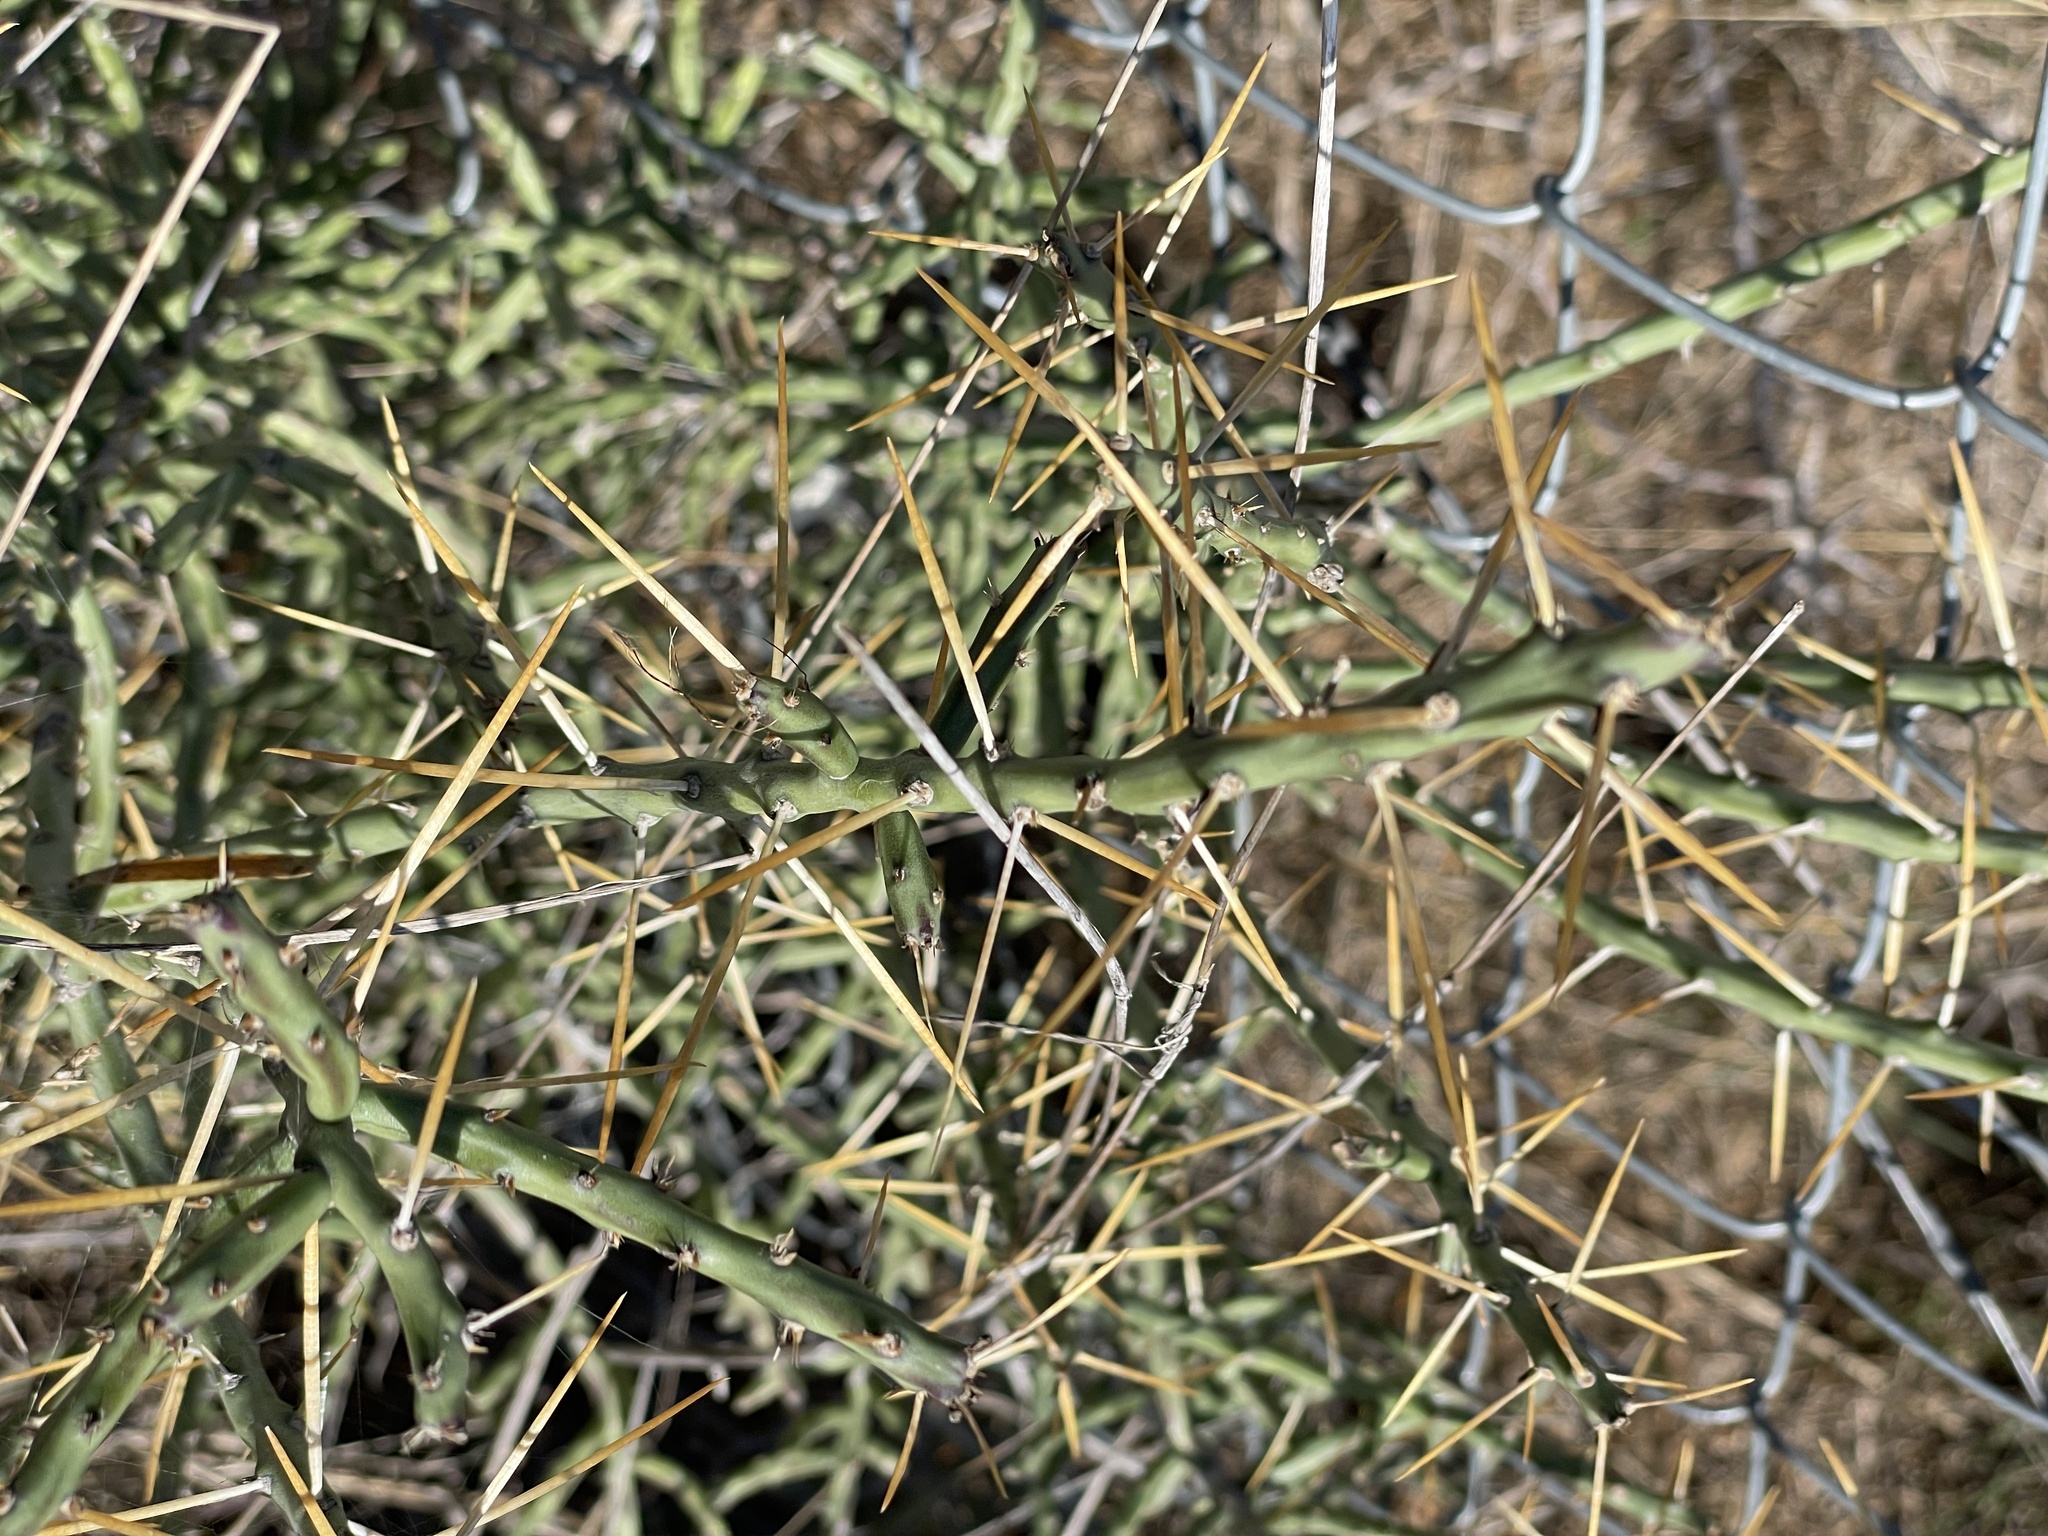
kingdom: Plantae
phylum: Tracheophyta
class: Magnoliopsida
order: Caryophyllales
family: Cactaceae
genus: Cylindropuntia
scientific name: Cylindropuntia leptocaulis
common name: Christmas cactus
